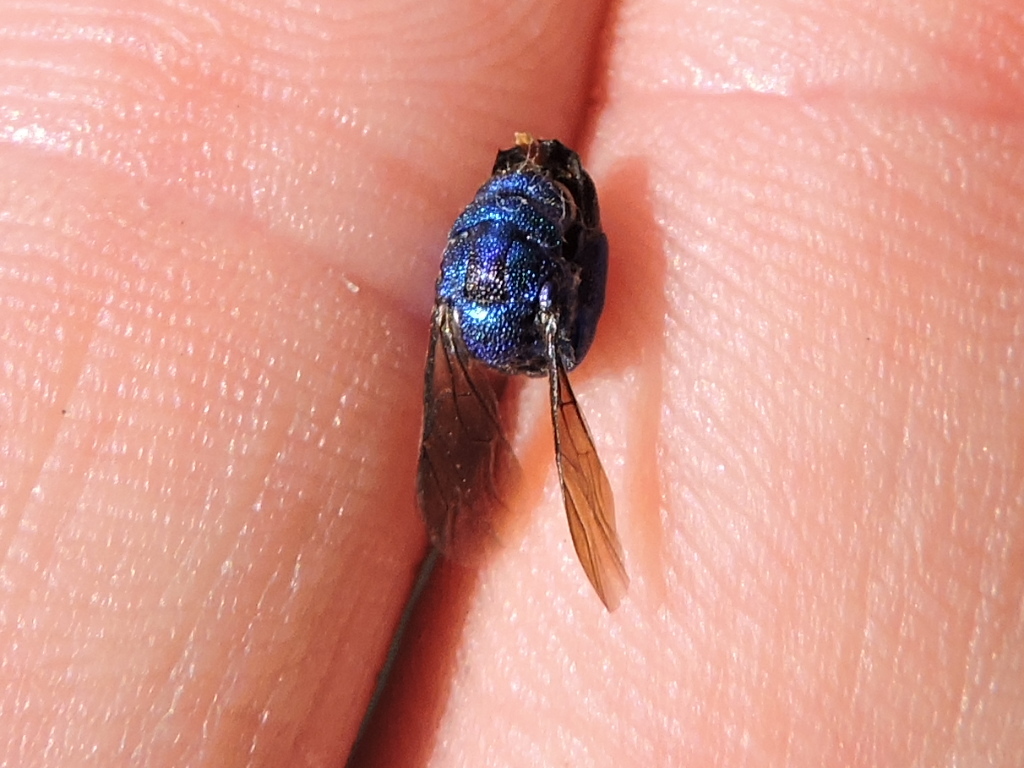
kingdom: Animalia
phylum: Arthropoda
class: Insecta
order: Hymenoptera
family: Chrysididae
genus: Chrysis
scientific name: Chrysis angolensis
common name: Cuckoo wasp
